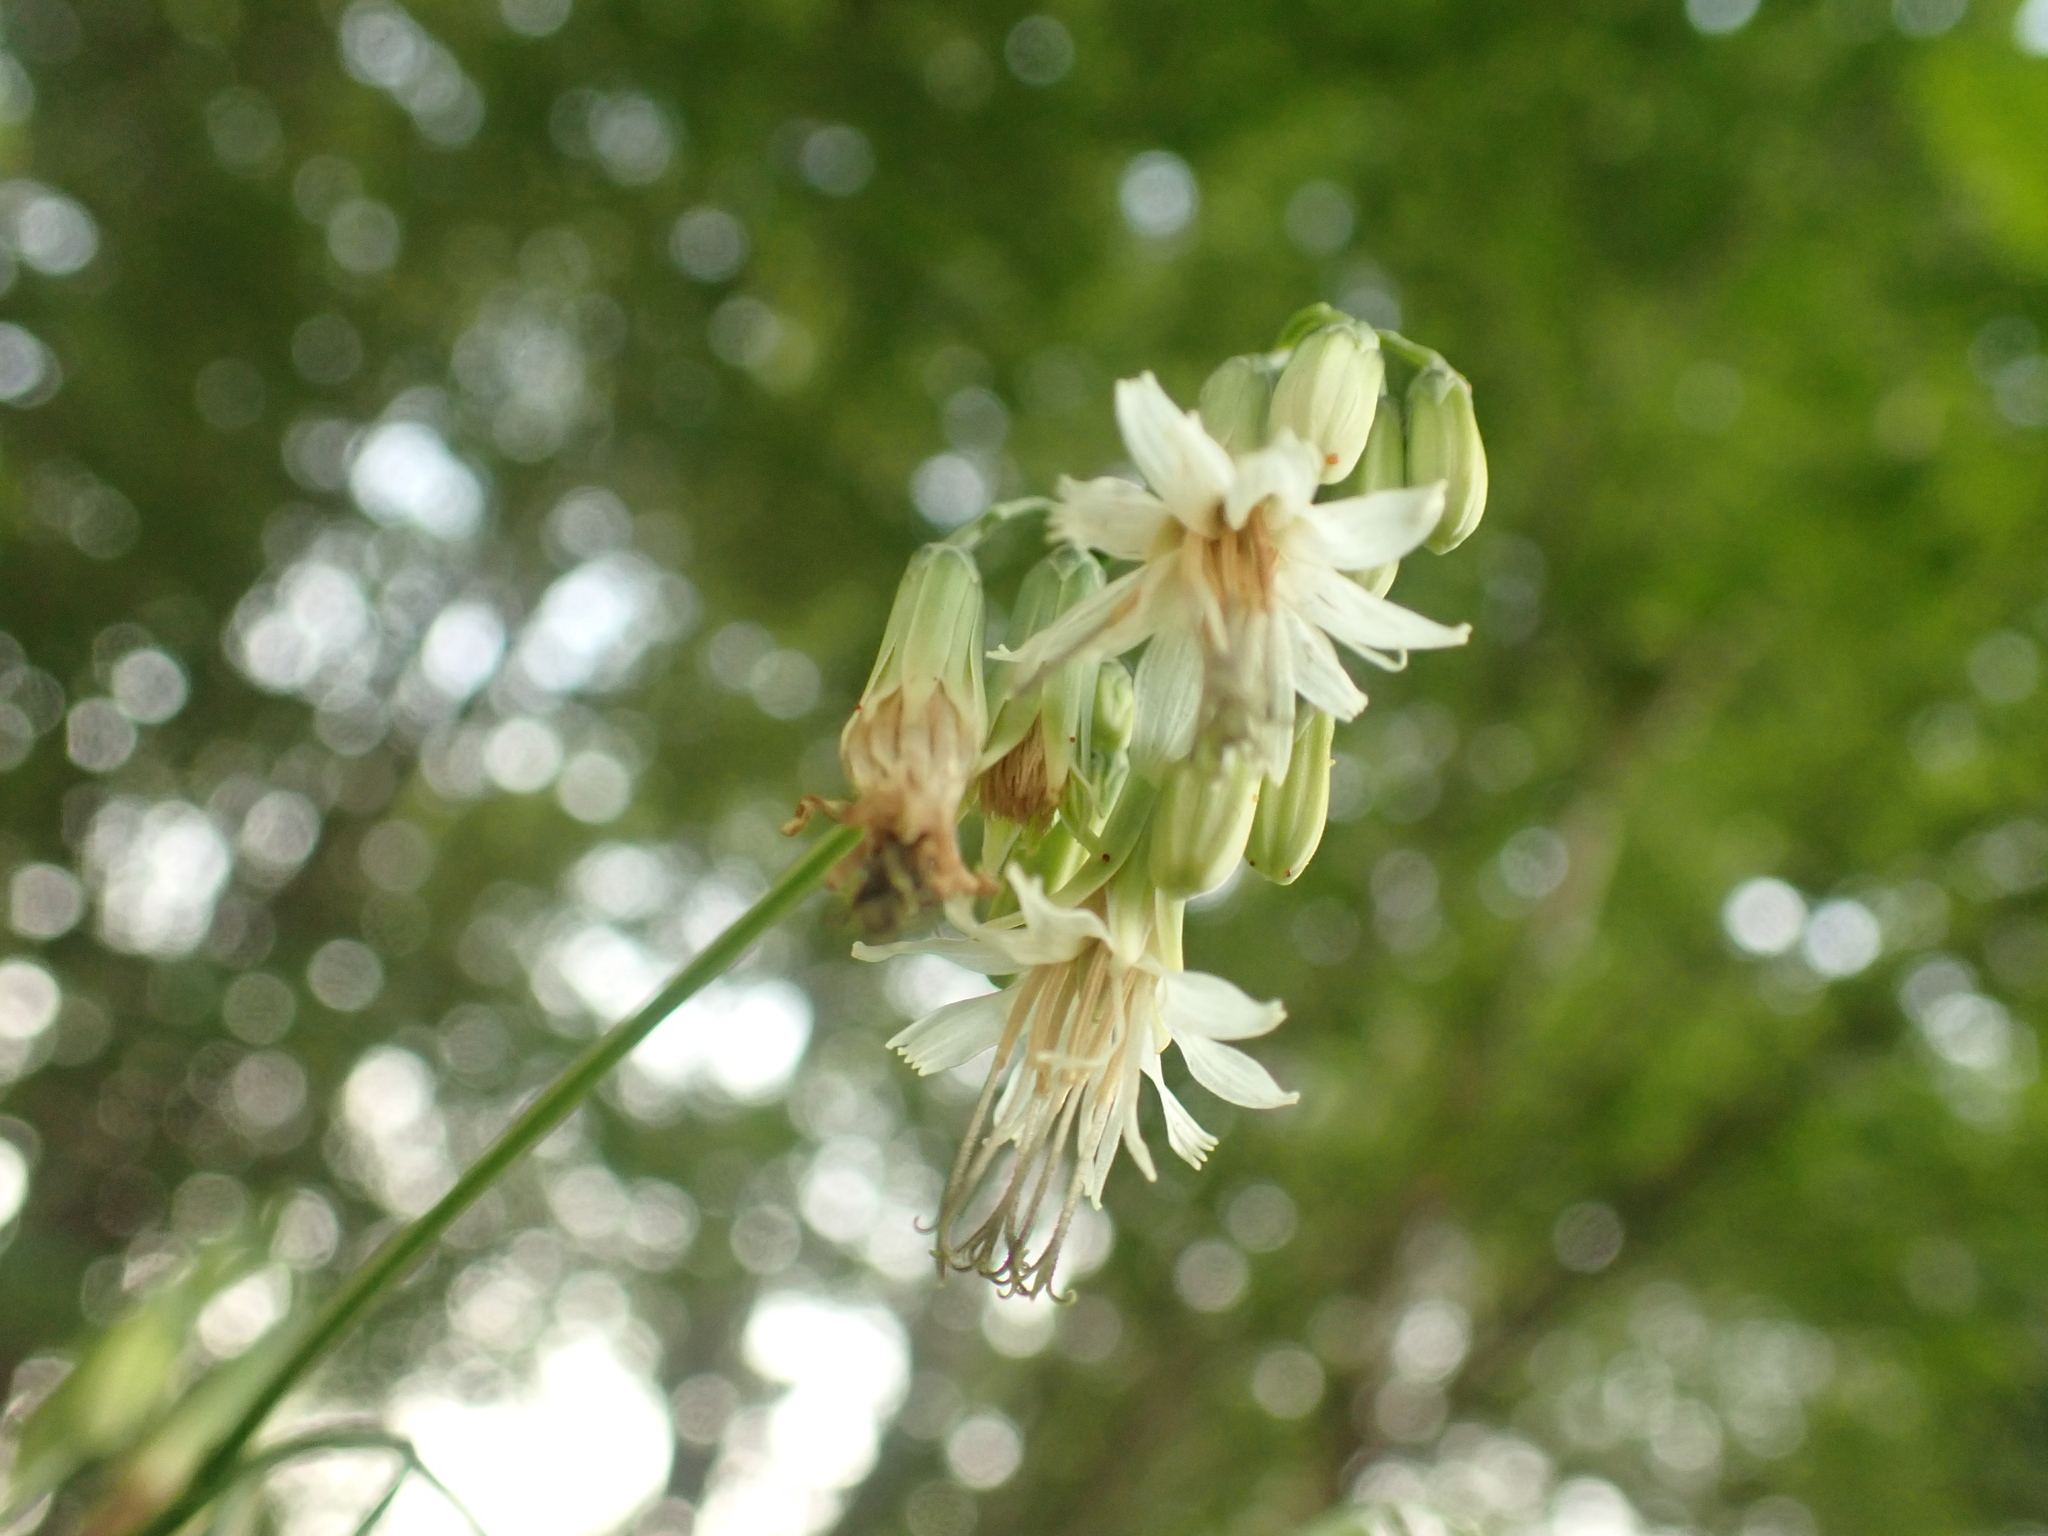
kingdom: Plantae
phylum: Tracheophyta
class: Magnoliopsida
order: Asterales
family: Asteraceae
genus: Nabalus
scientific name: Nabalus trifoliolatus
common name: Gall-of-the-earth
